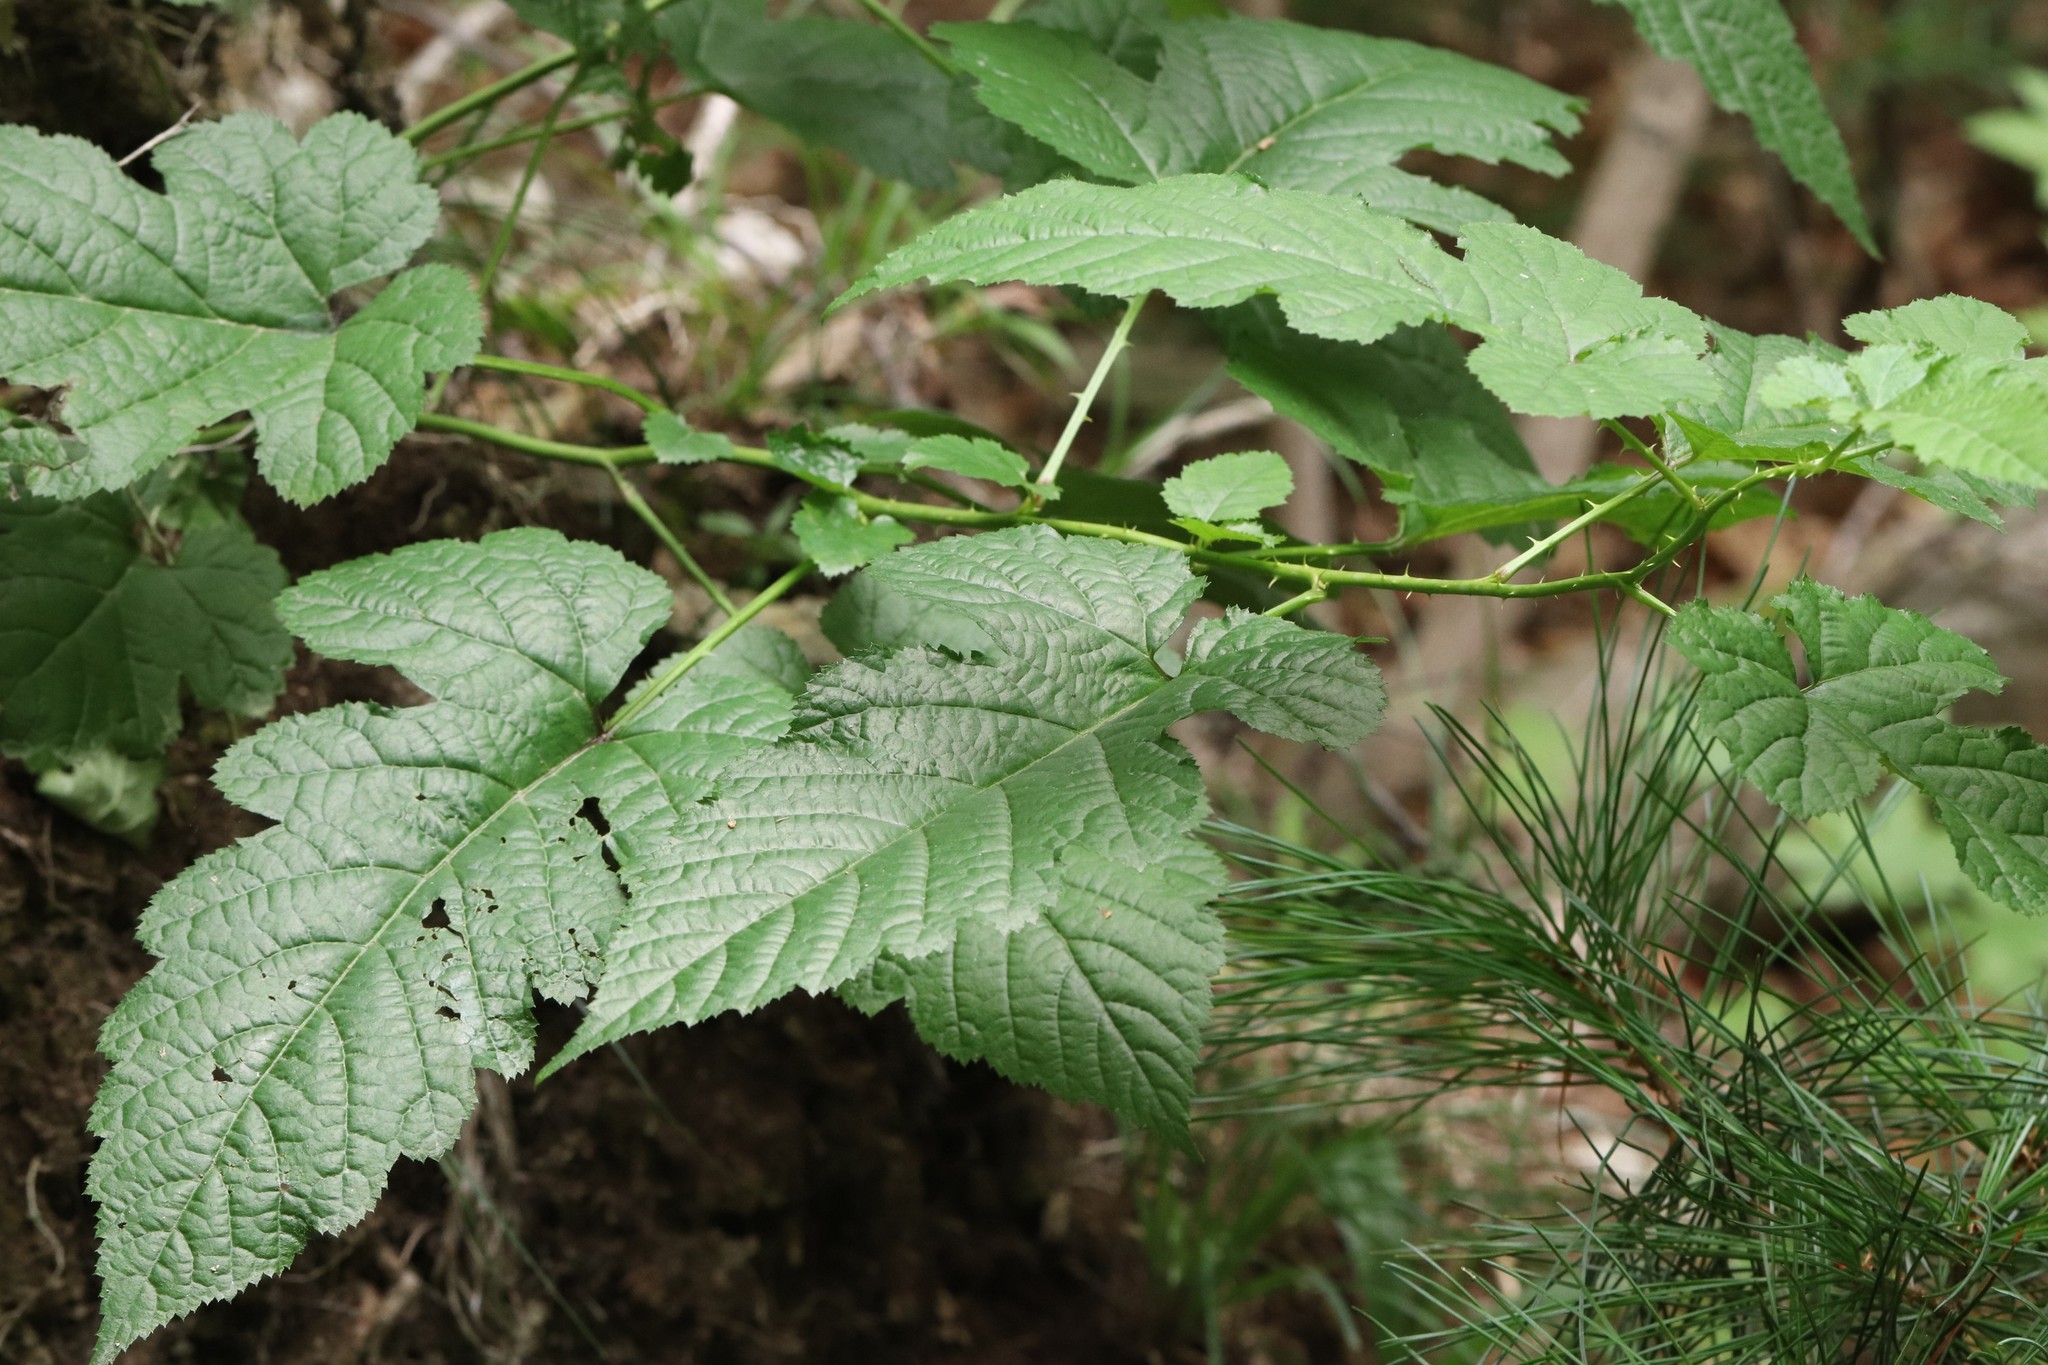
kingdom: Plantae
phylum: Tracheophyta
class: Magnoliopsida
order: Rosales
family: Rosaceae
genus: Rubus
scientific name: Rubus crataegifolius
